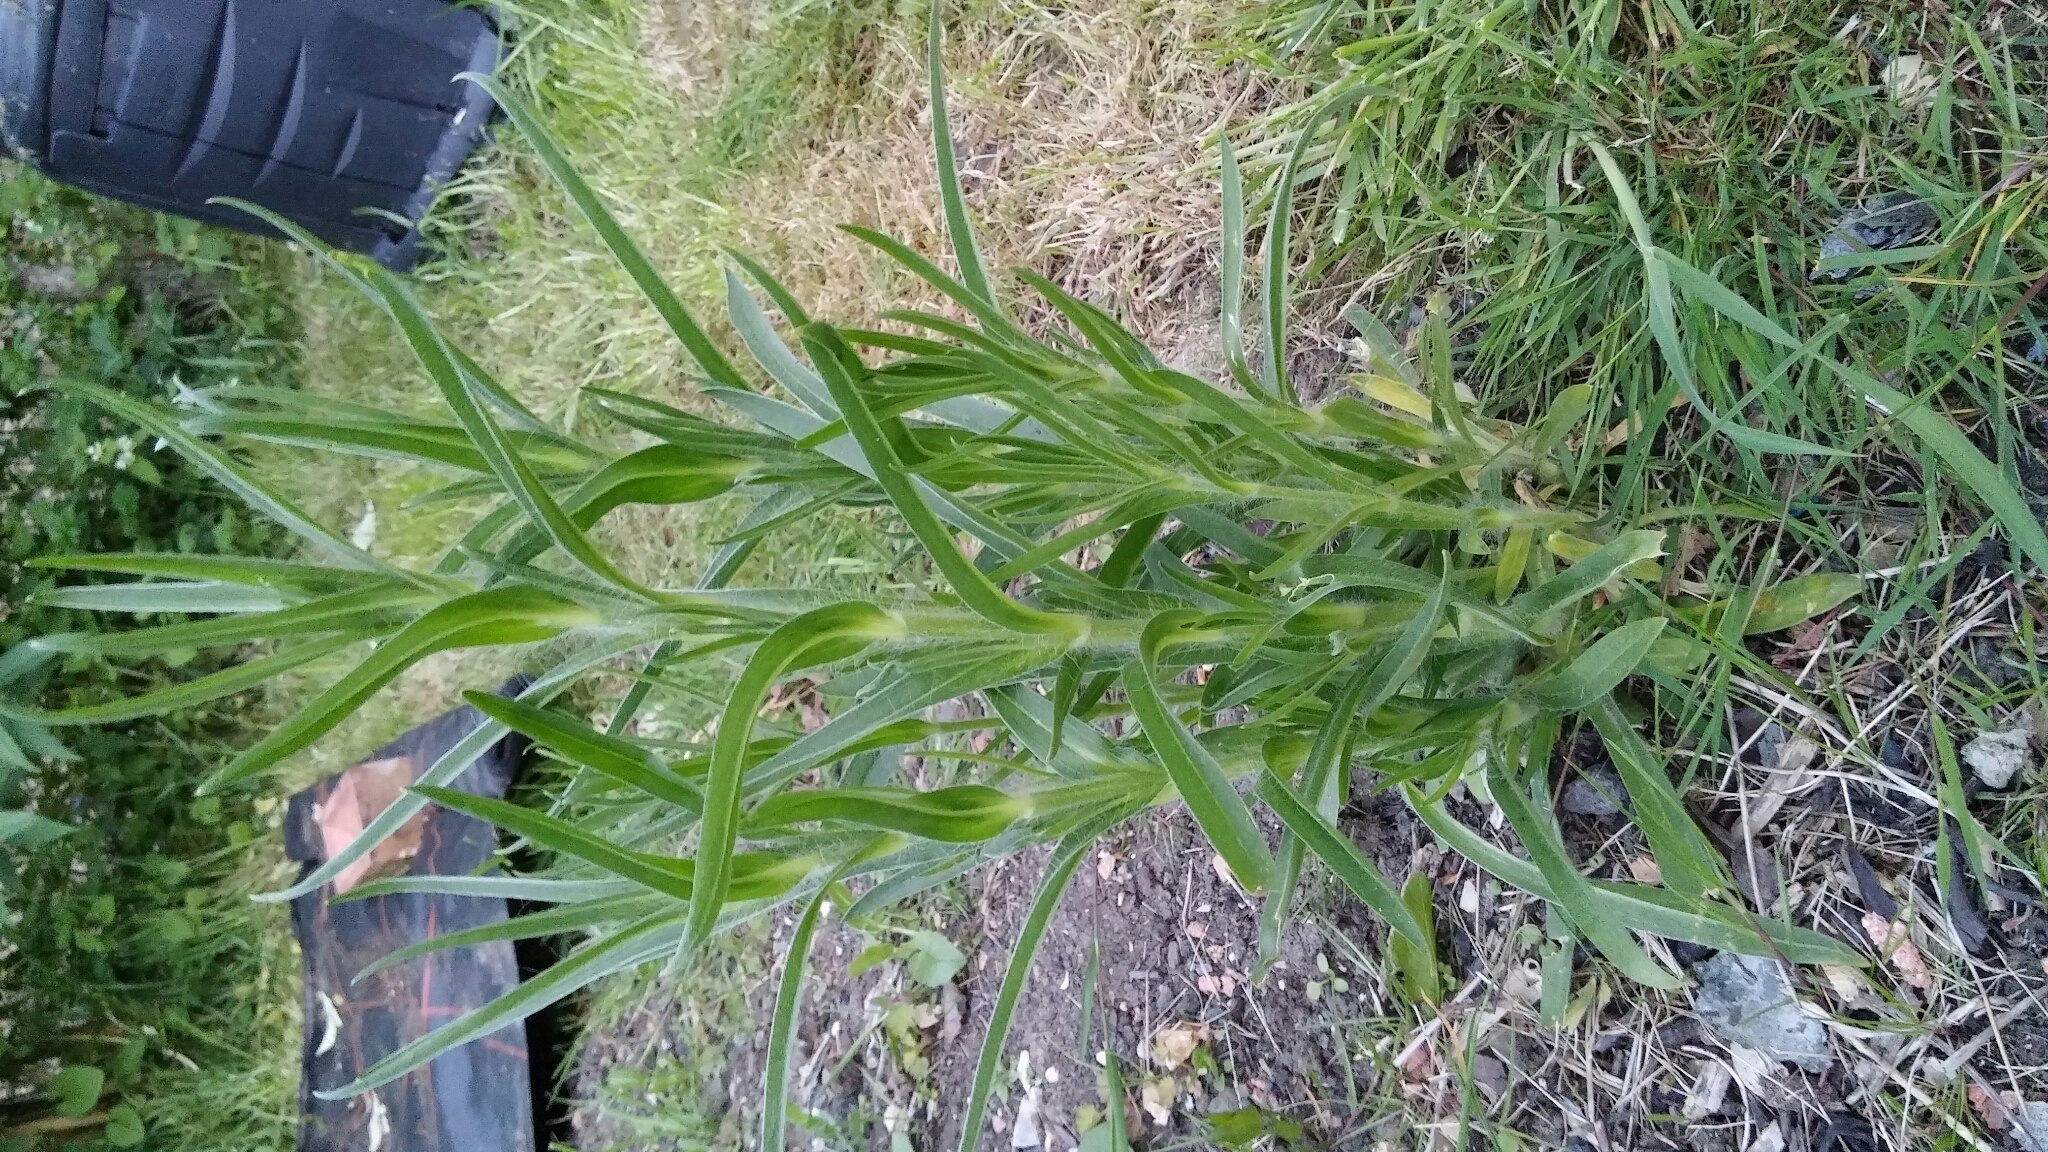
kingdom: Plantae
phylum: Tracheophyta
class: Magnoliopsida
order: Caryophyllales
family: Caryophyllaceae
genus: Agrostemma
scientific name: Agrostemma githago
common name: Common corncockle
